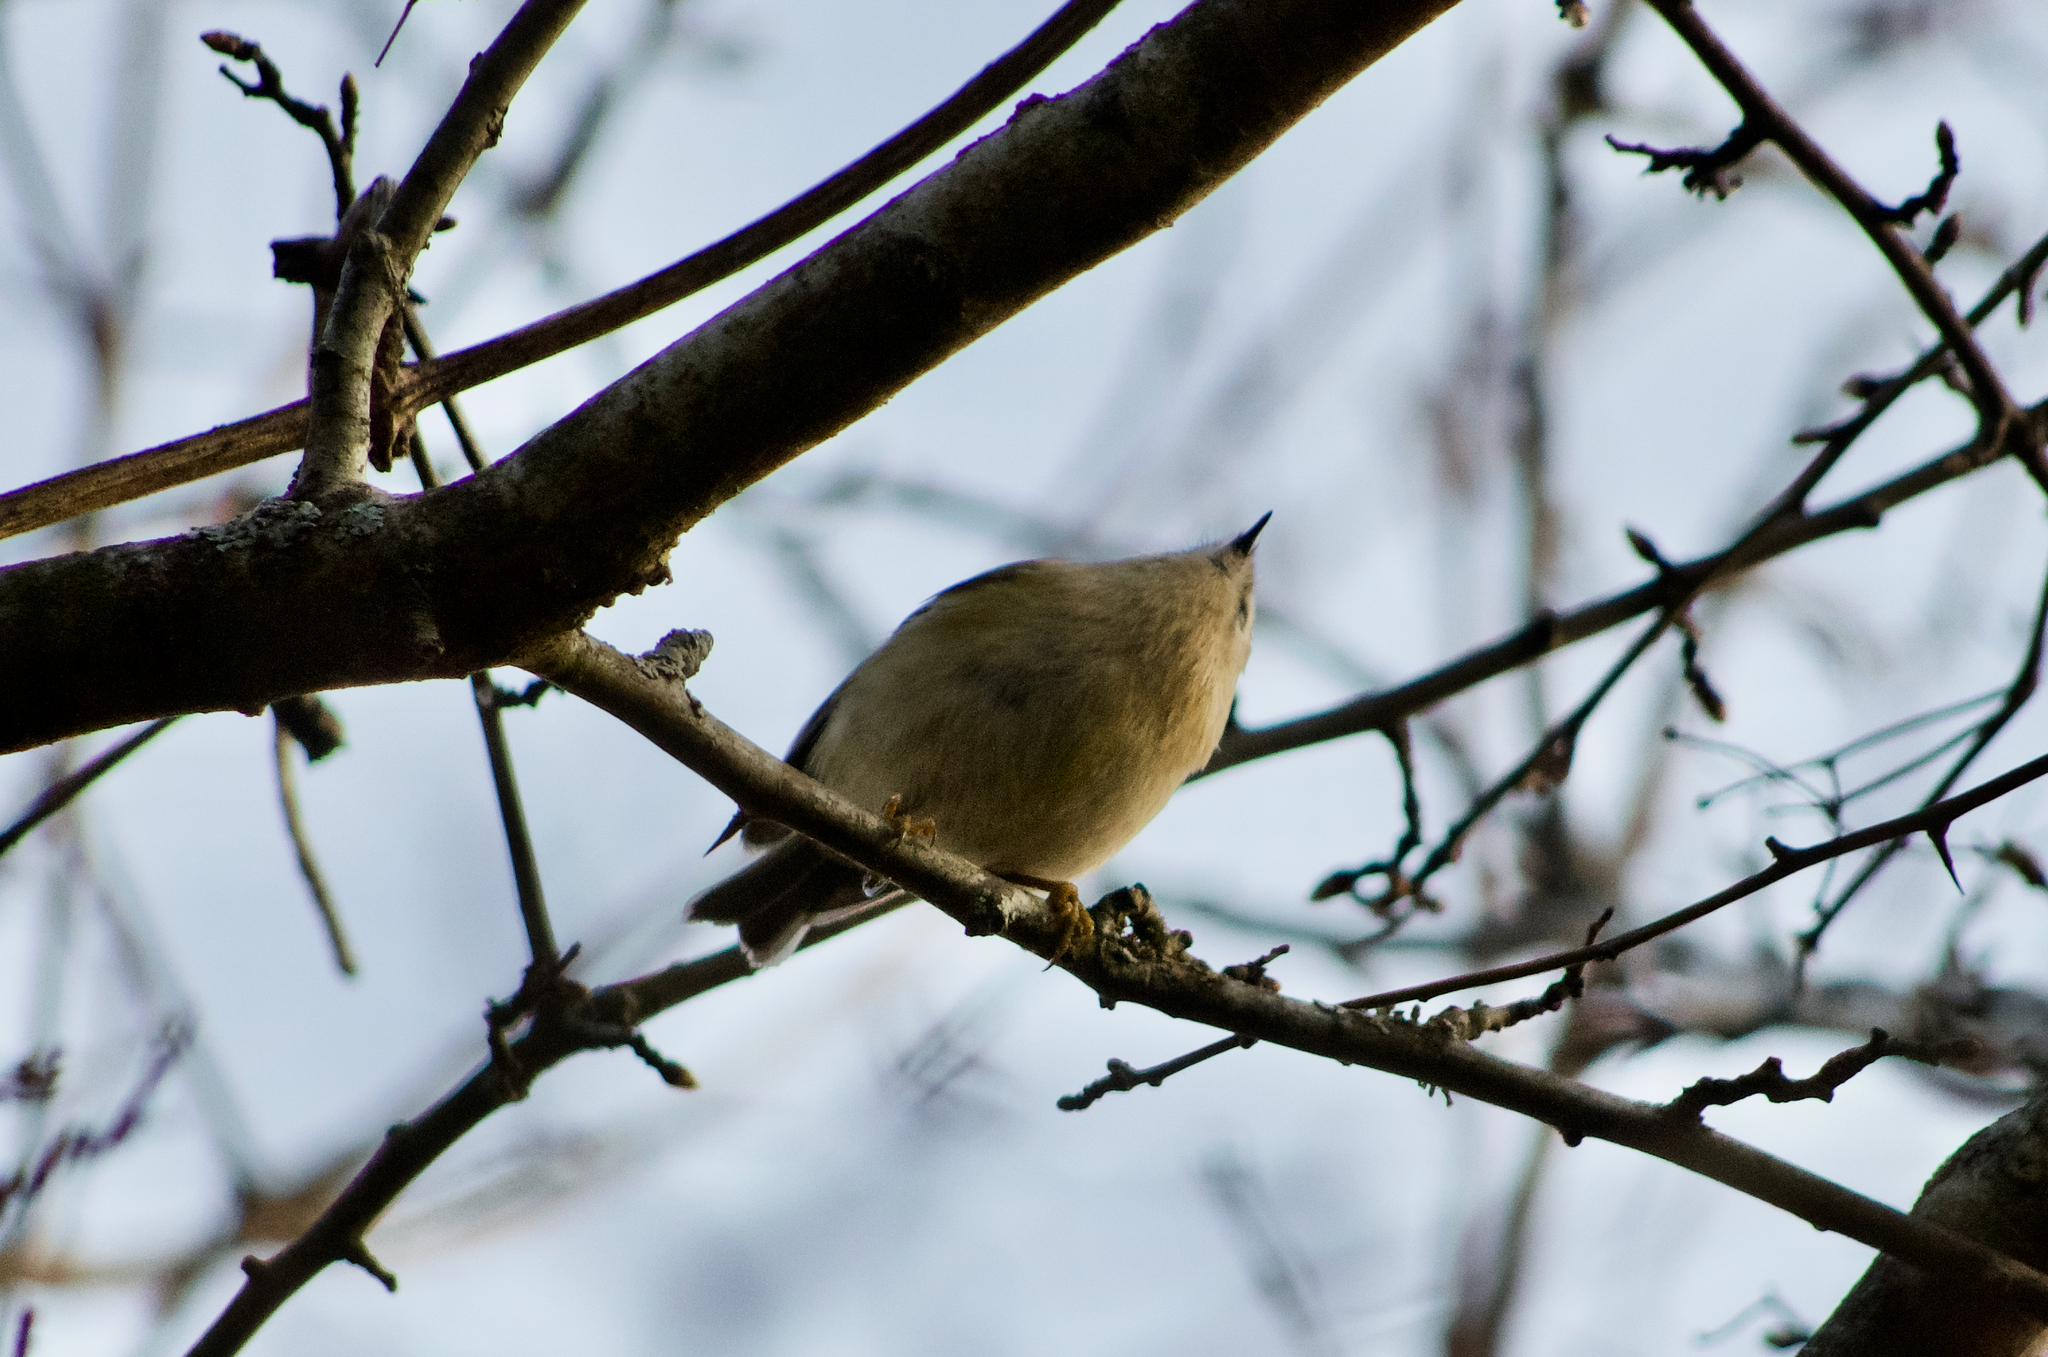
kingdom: Animalia
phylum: Chordata
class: Aves
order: Passeriformes
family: Regulidae
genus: Regulus
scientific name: Regulus regulus
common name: Goldcrest
